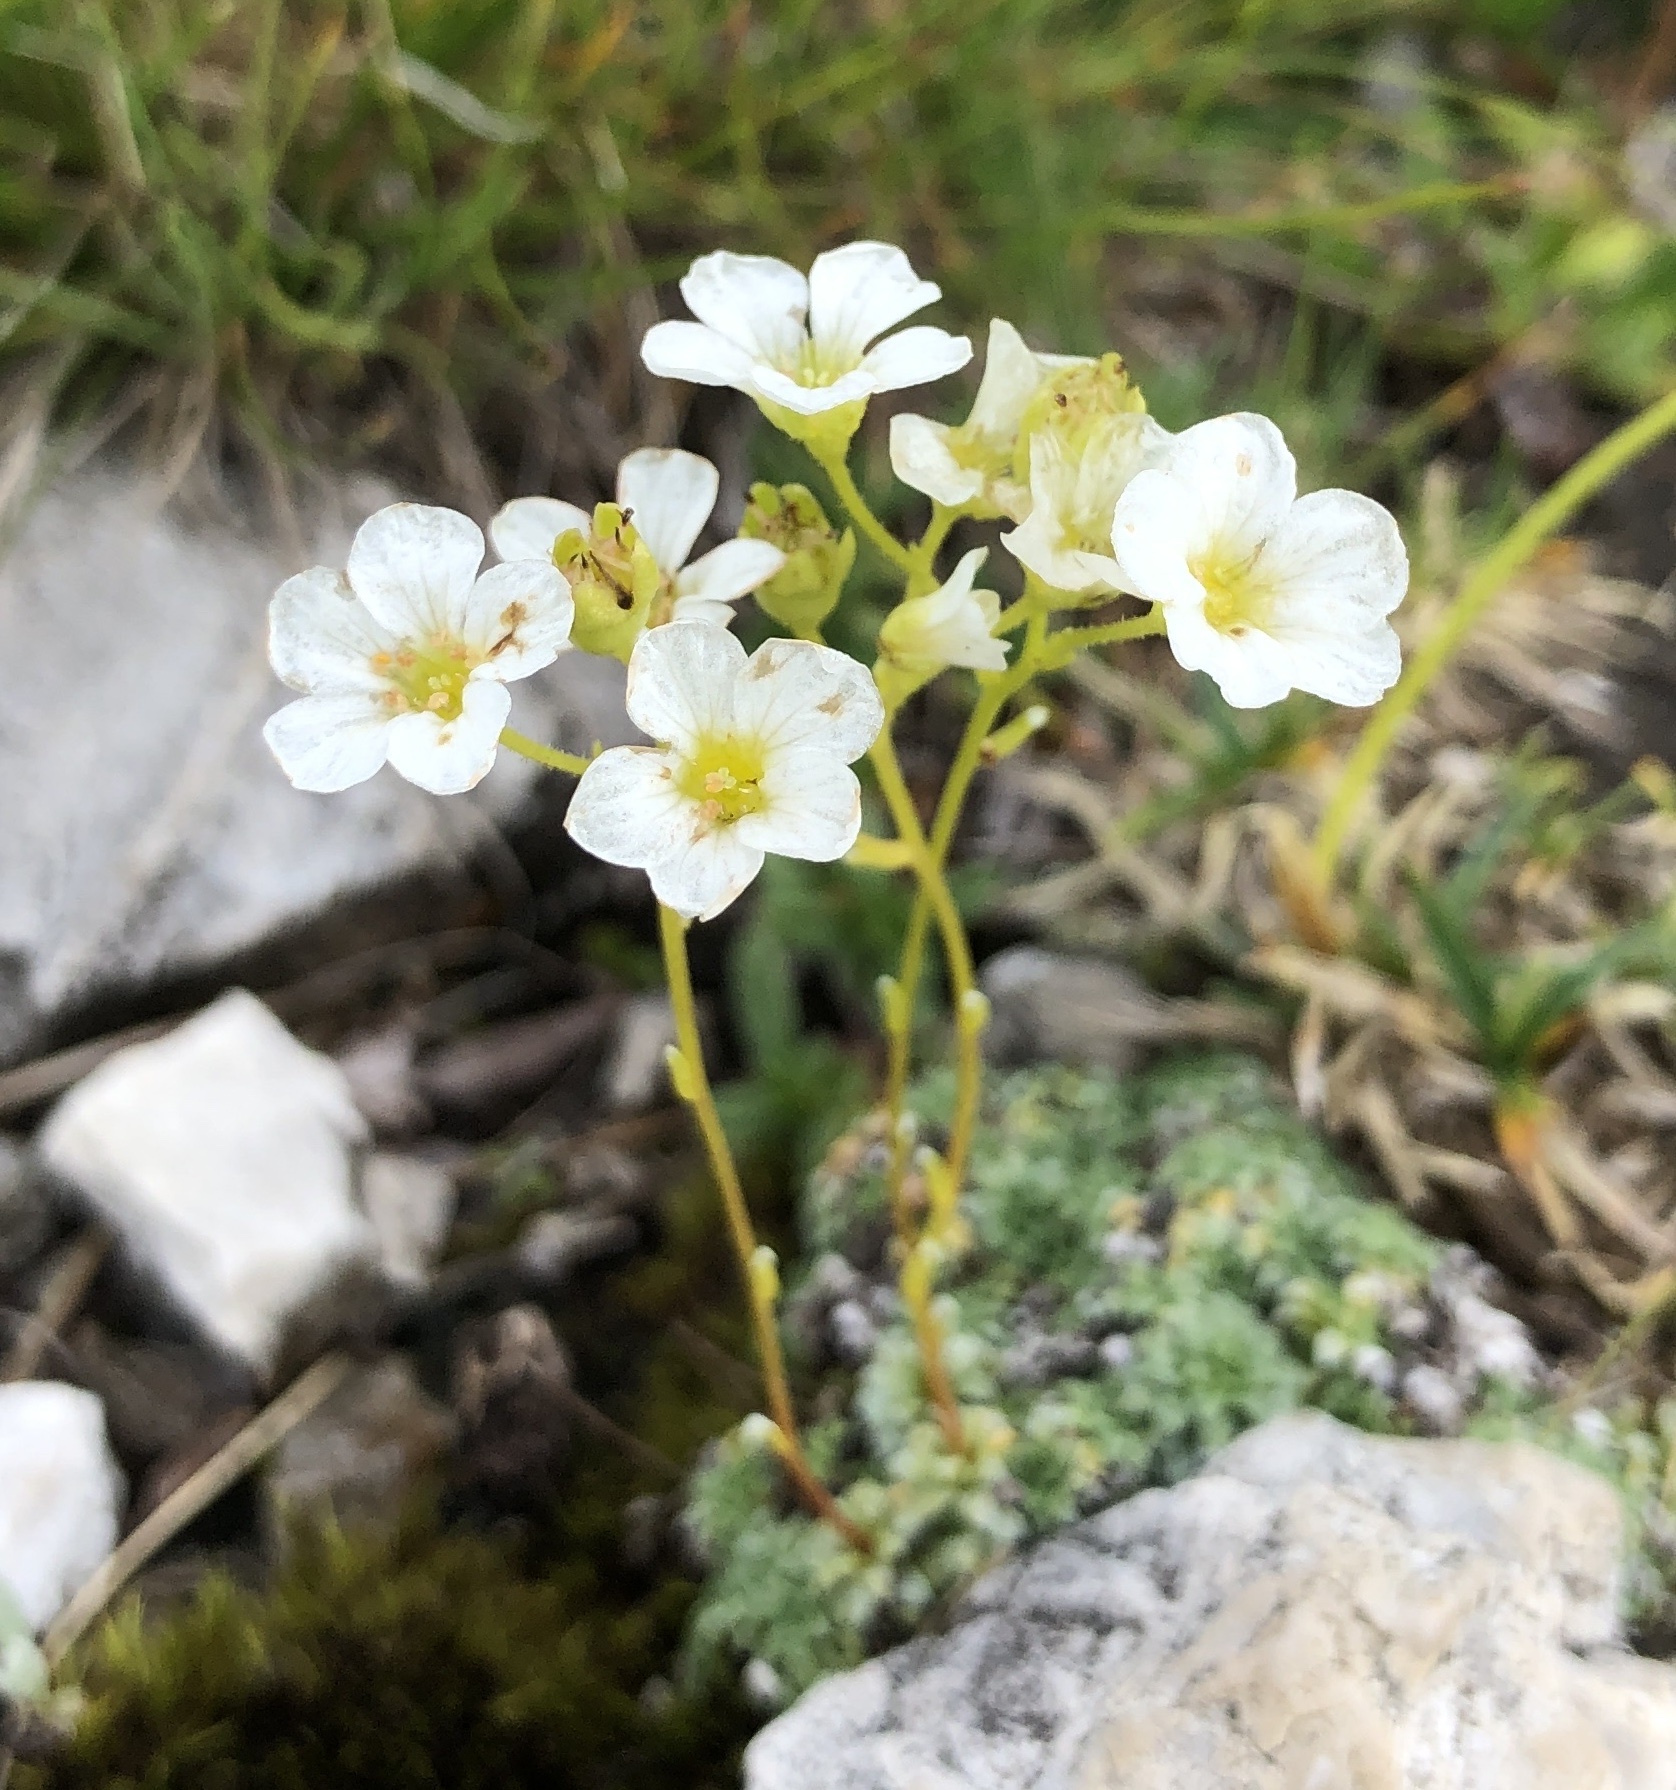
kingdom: Plantae
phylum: Tracheophyta
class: Magnoliopsida
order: Saxifragales
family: Saxifragaceae
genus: Saxifraga
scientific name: Saxifraga caesia
